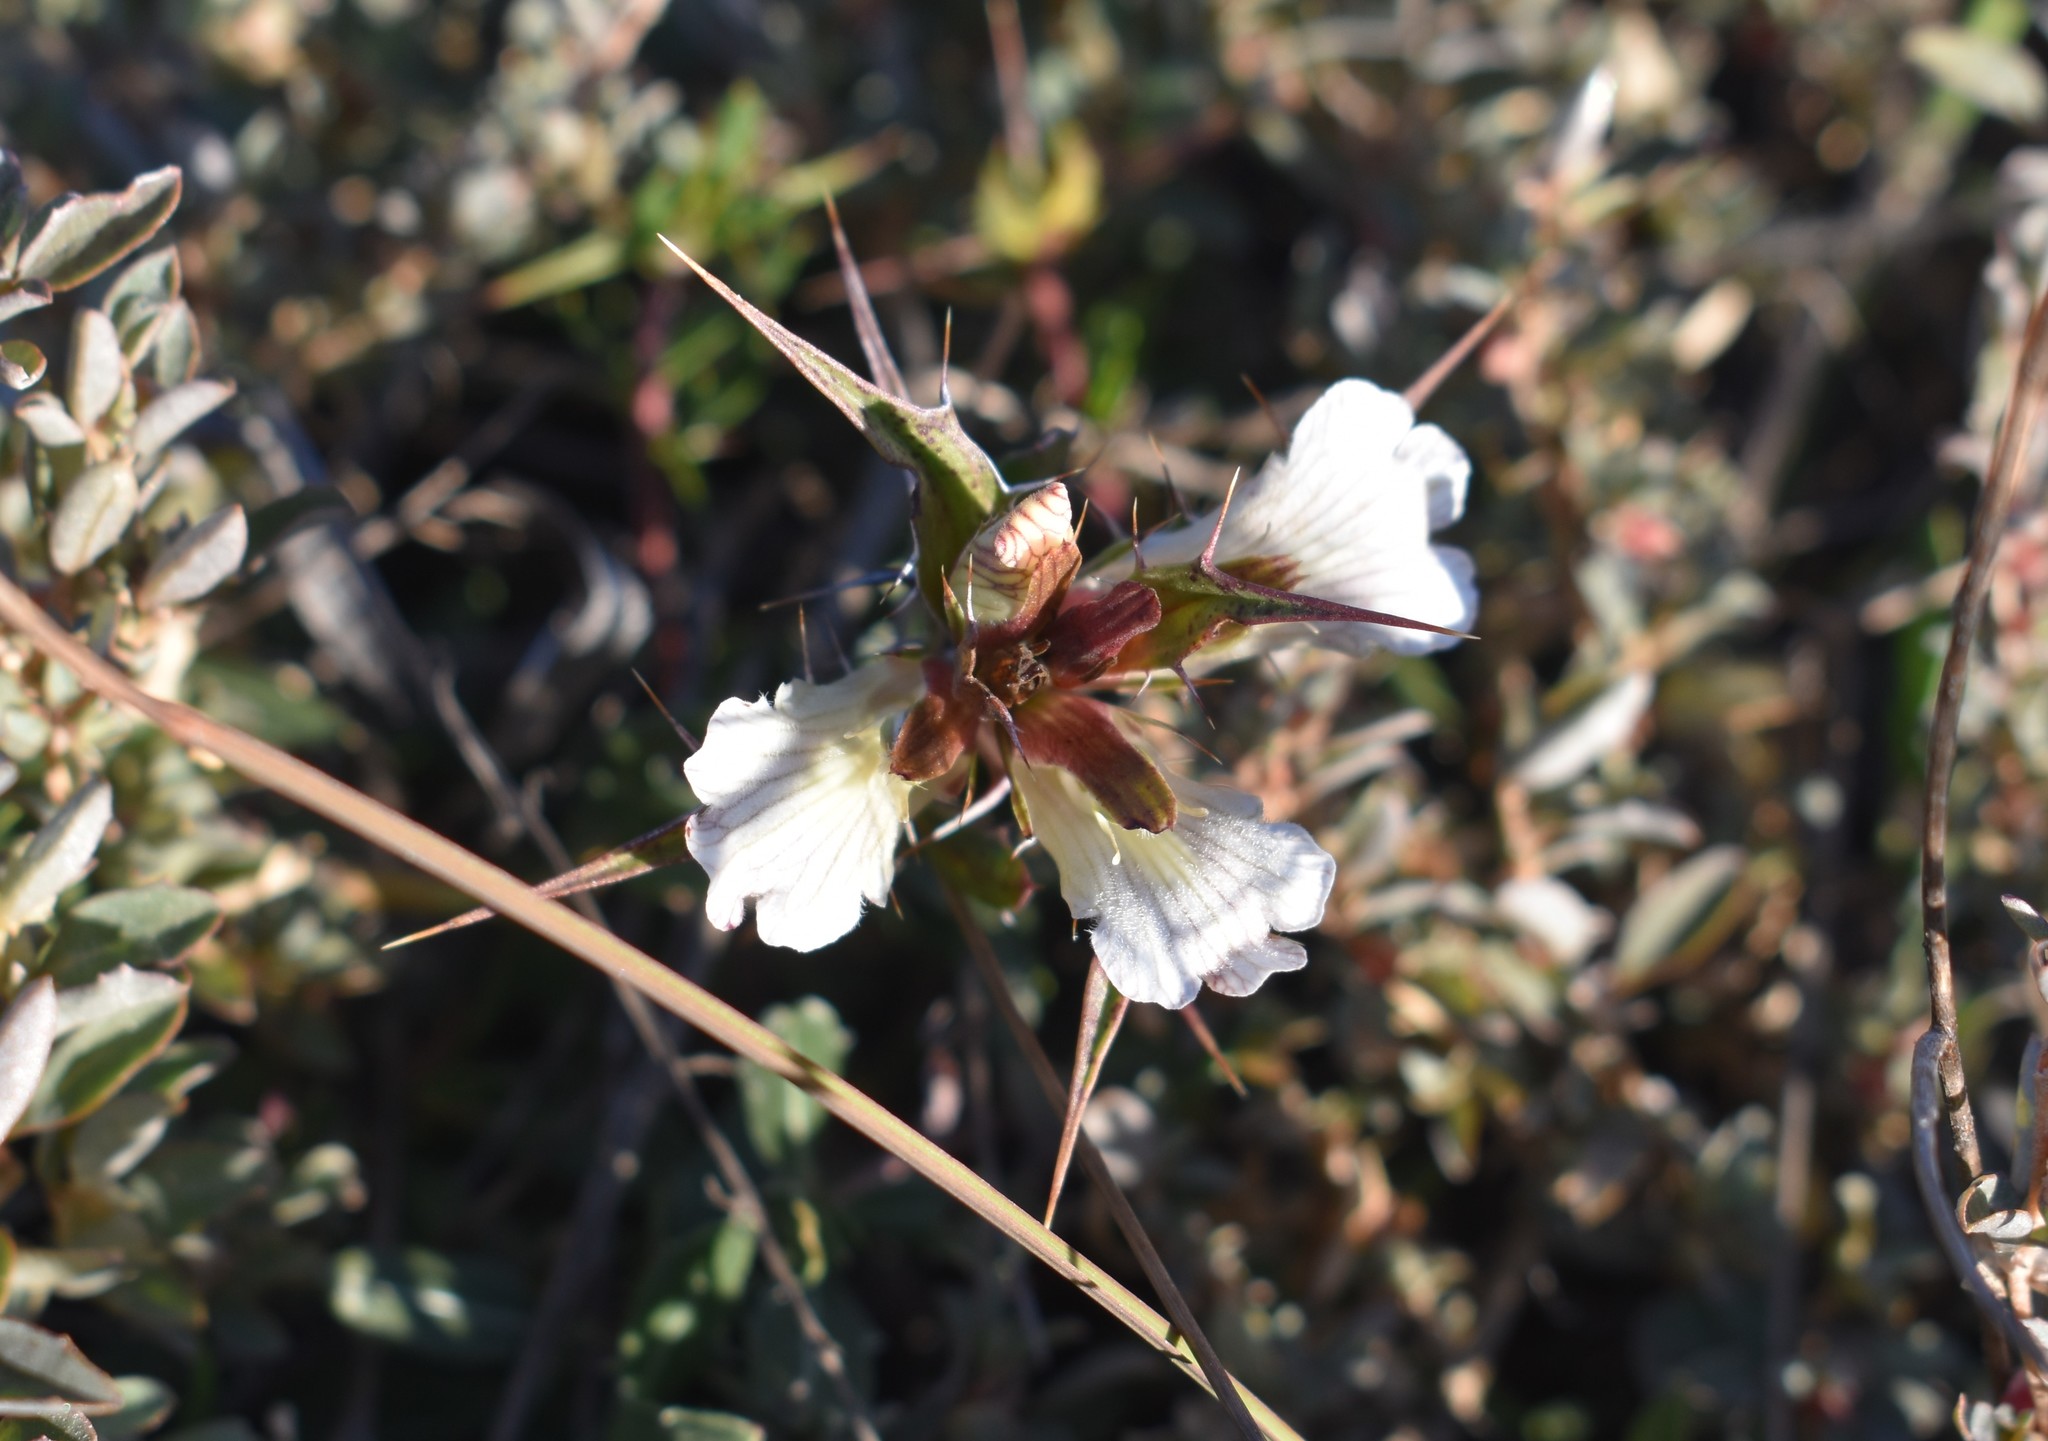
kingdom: Plantae
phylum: Tracheophyta
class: Magnoliopsida
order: Lamiales
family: Acanthaceae
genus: Blepharis
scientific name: Blepharis capensis
